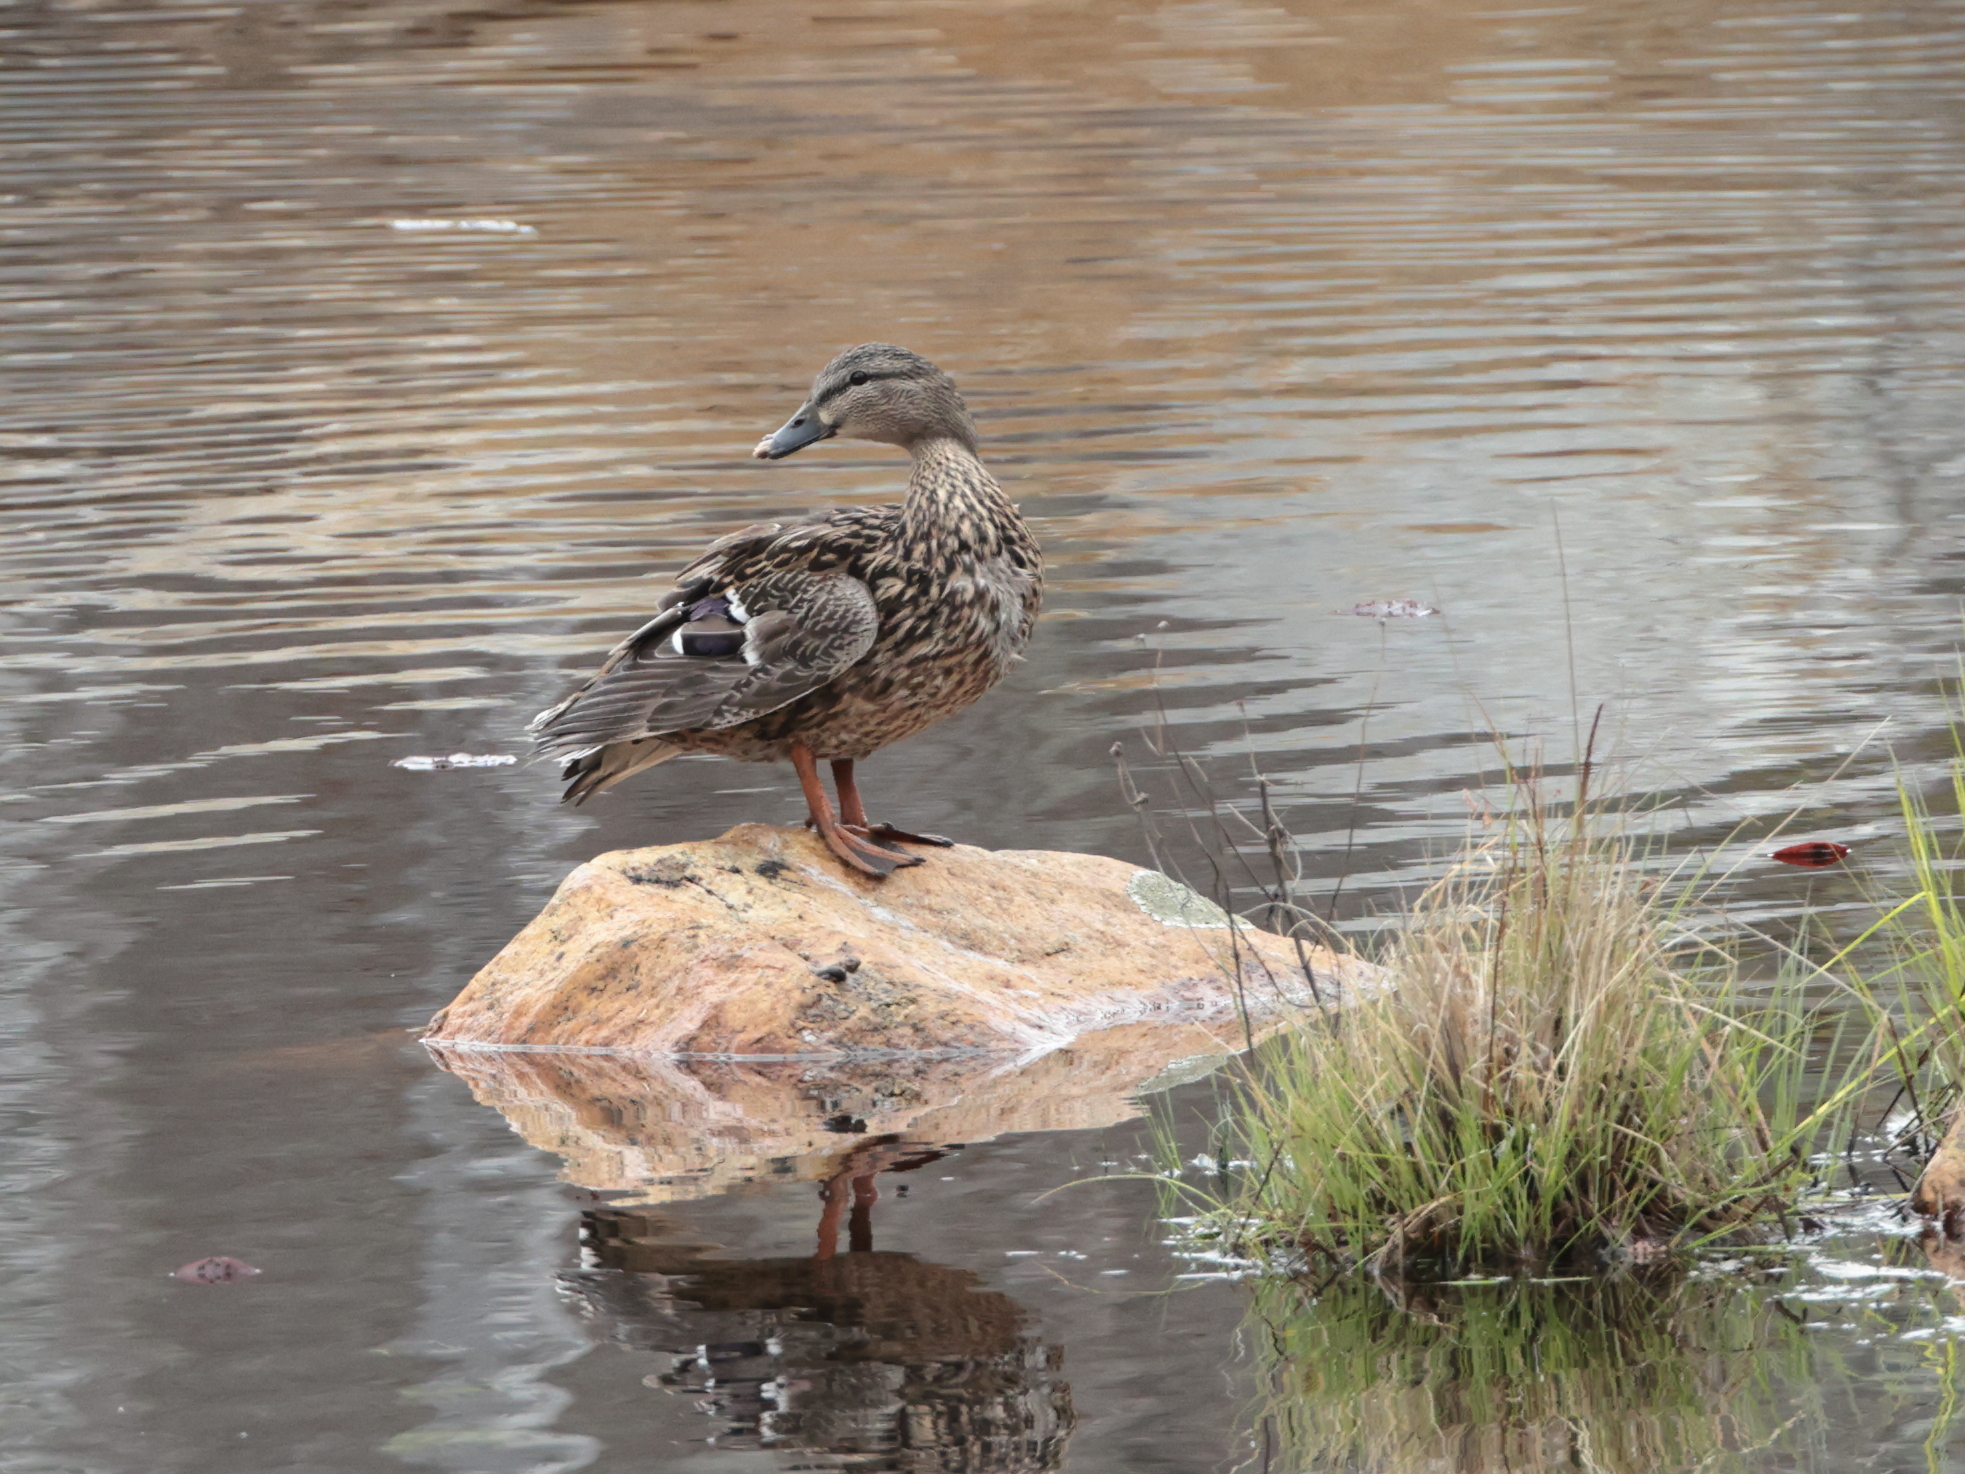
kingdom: Animalia
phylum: Chordata
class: Aves
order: Anseriformes
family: Anatidae
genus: Anas
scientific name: Anas platyrhynchos
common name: Mallard
